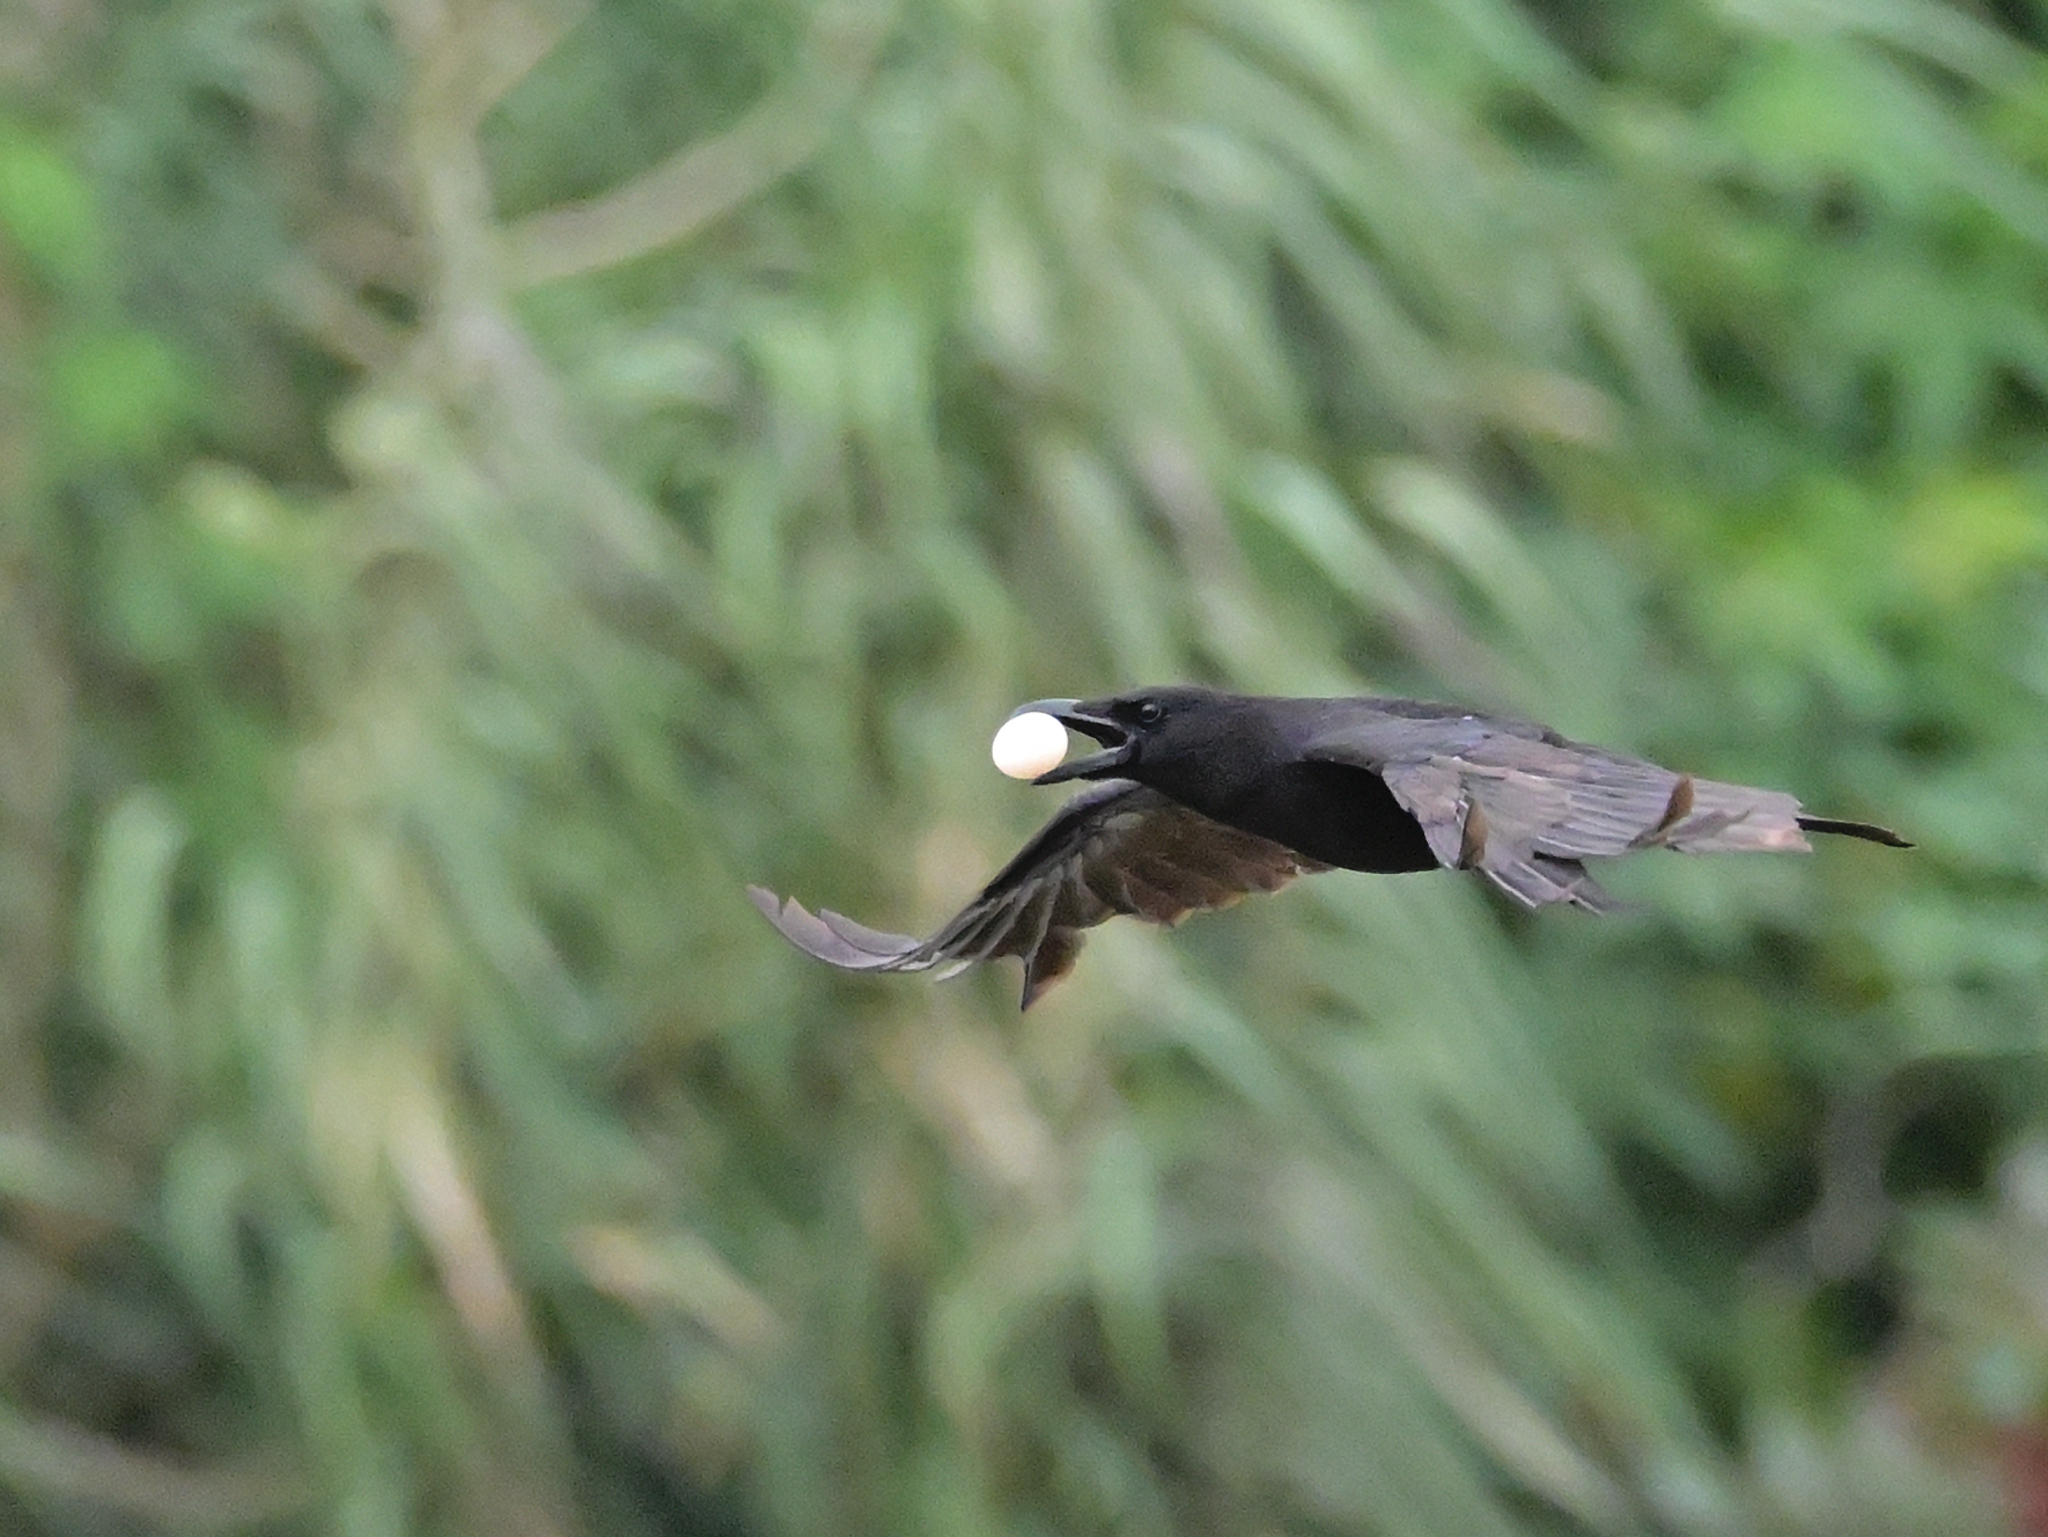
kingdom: Animalia
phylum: Chordata
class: Aves
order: Passeriformes
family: Corvidae
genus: Corvus
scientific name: Corvus corone
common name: Carrion crow
